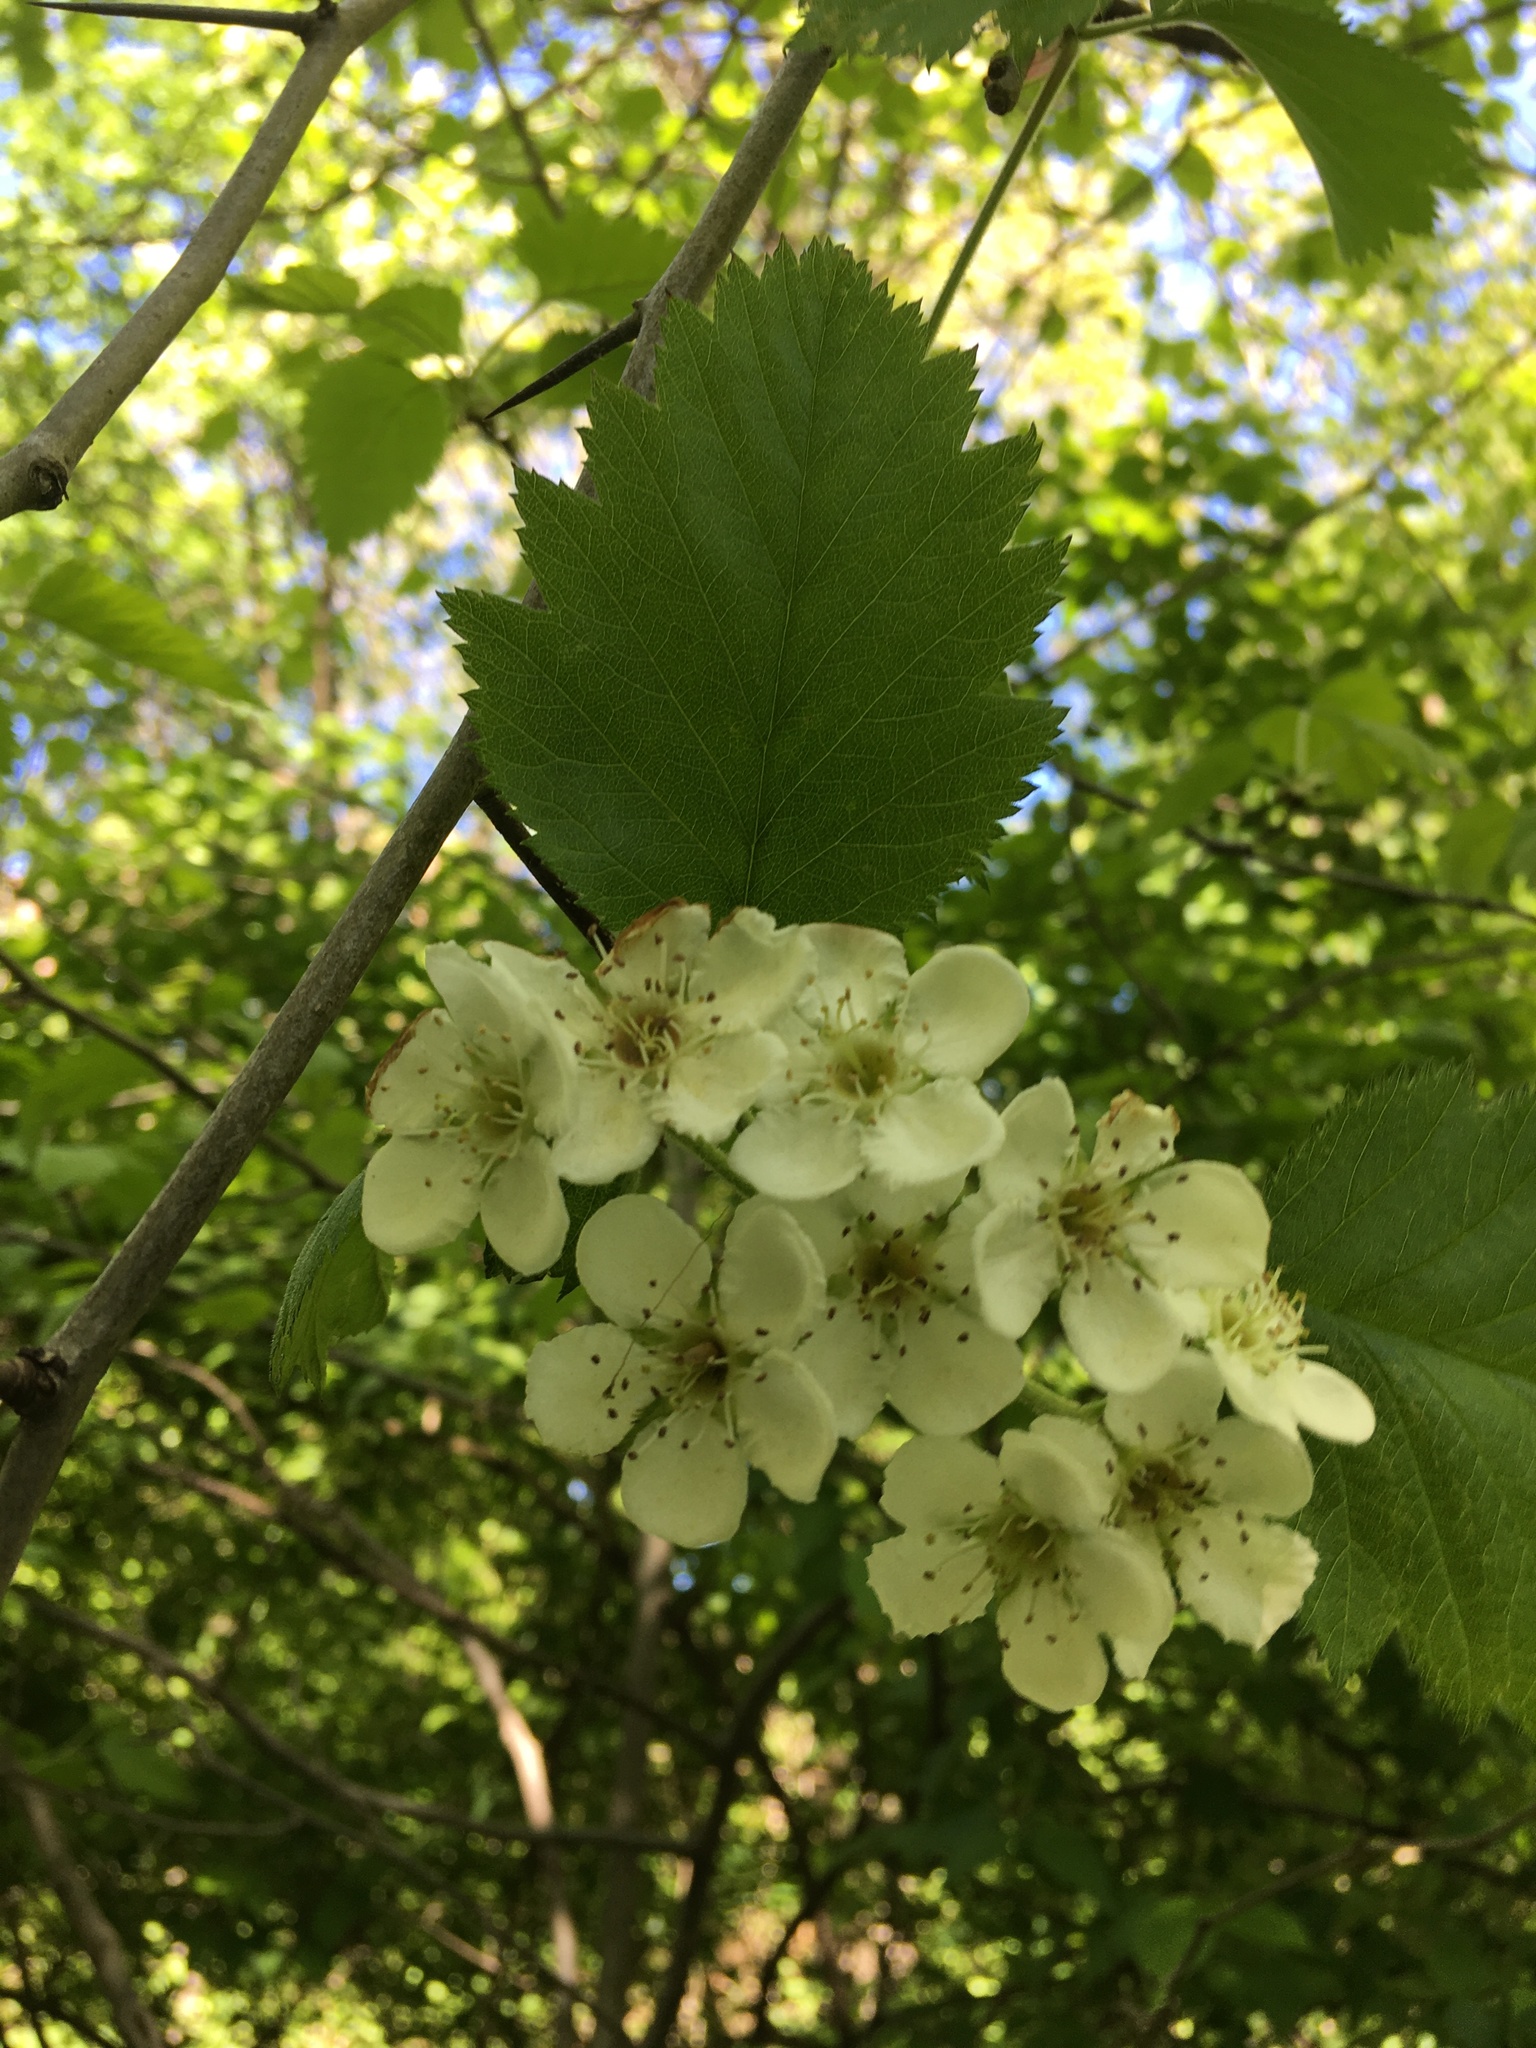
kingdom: Plantae
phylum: Tracheophyta
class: Magnoliopsida
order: Rosales
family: Rosaceae
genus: Crataegus
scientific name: Crataegus mollis
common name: Downy hawthorn
